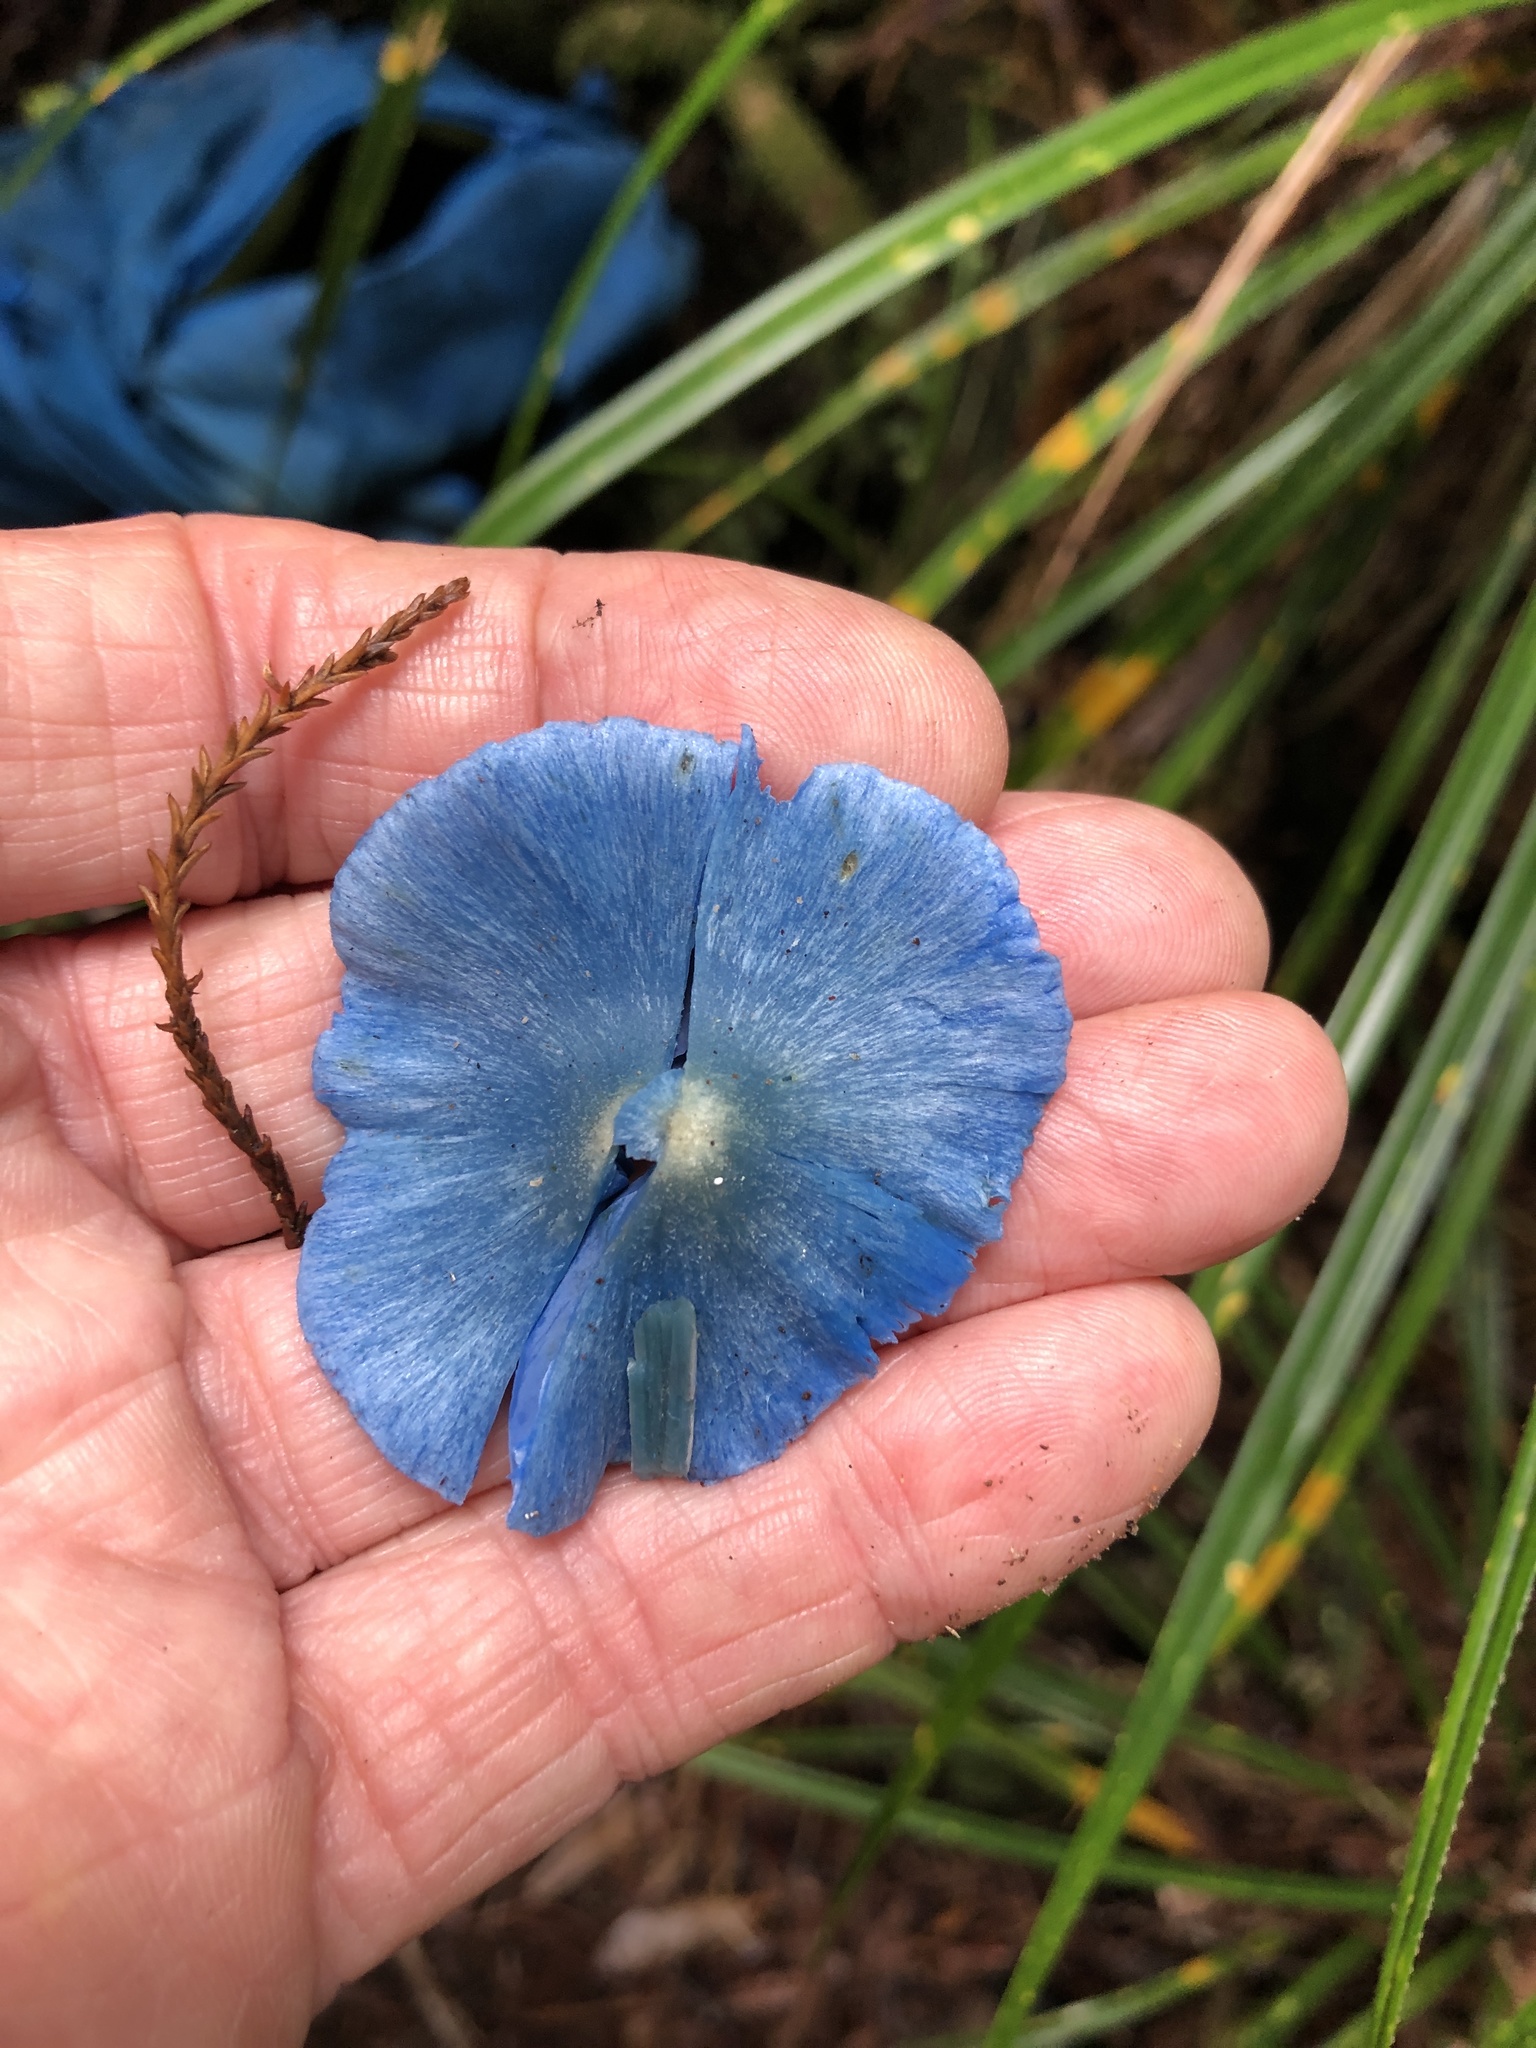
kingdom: Fungi
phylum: Basidiomycota
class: Agaricomycetes
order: Agaricales
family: Entolomataceae
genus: Entoloma
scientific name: Entoloma hochstetteri
